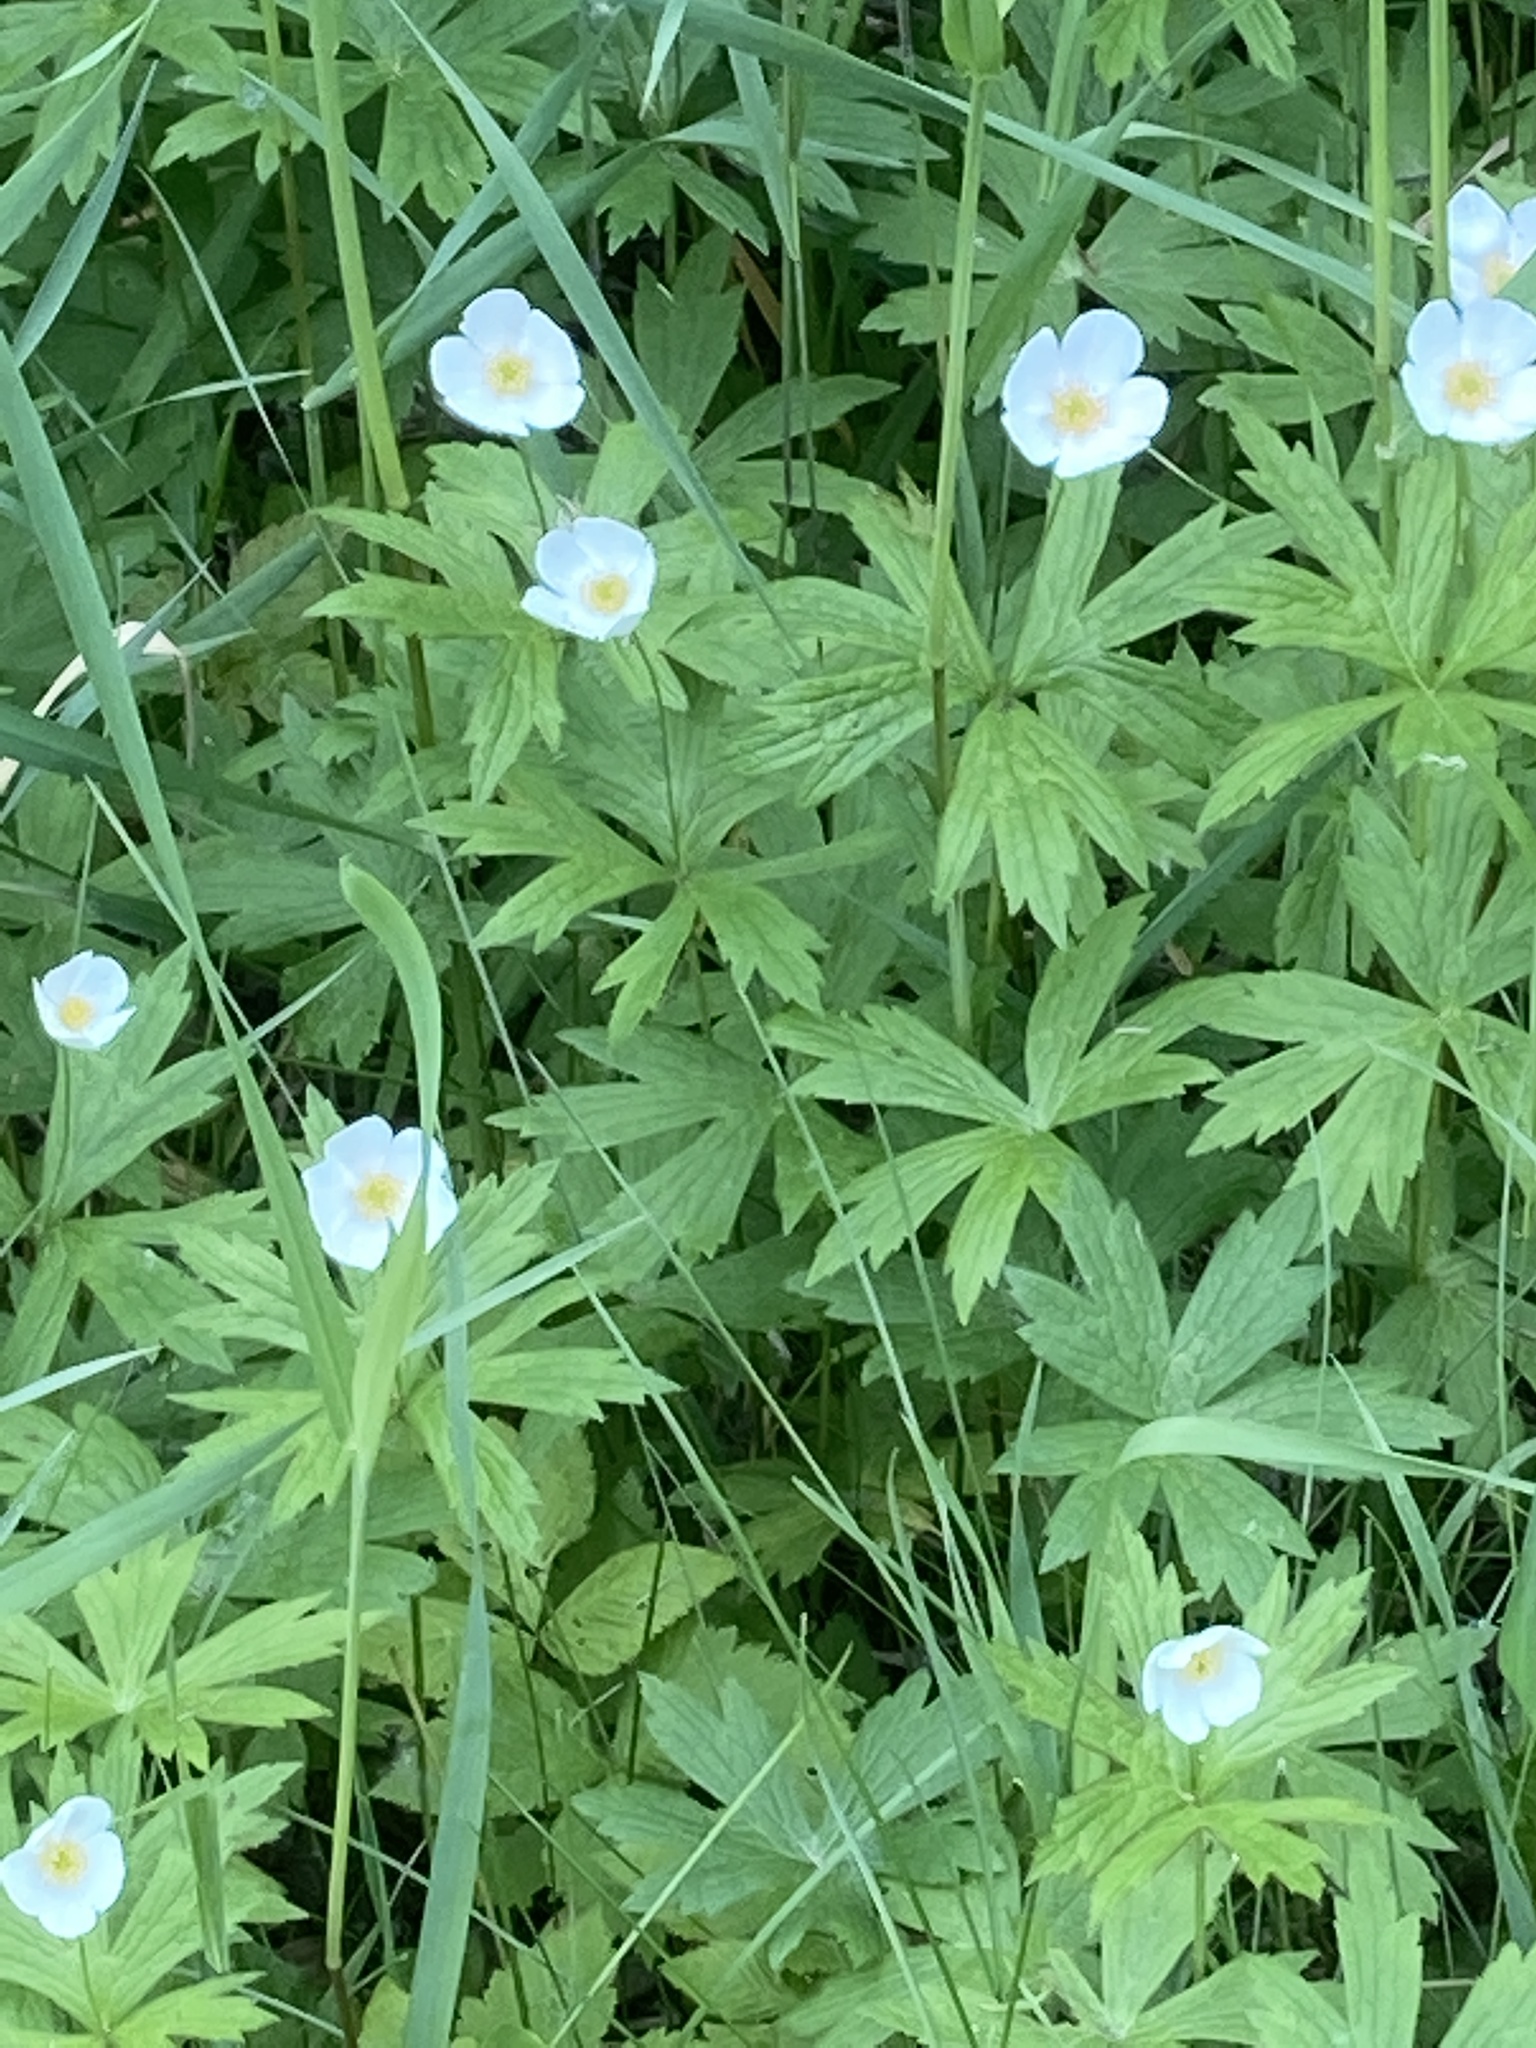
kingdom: Plantae
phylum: Tracheophyta
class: Magnoliopsida
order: Ranunculales
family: Ranunculaceae
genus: Anemonastrum
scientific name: Anemonastrum canadense
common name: Canada anemone
